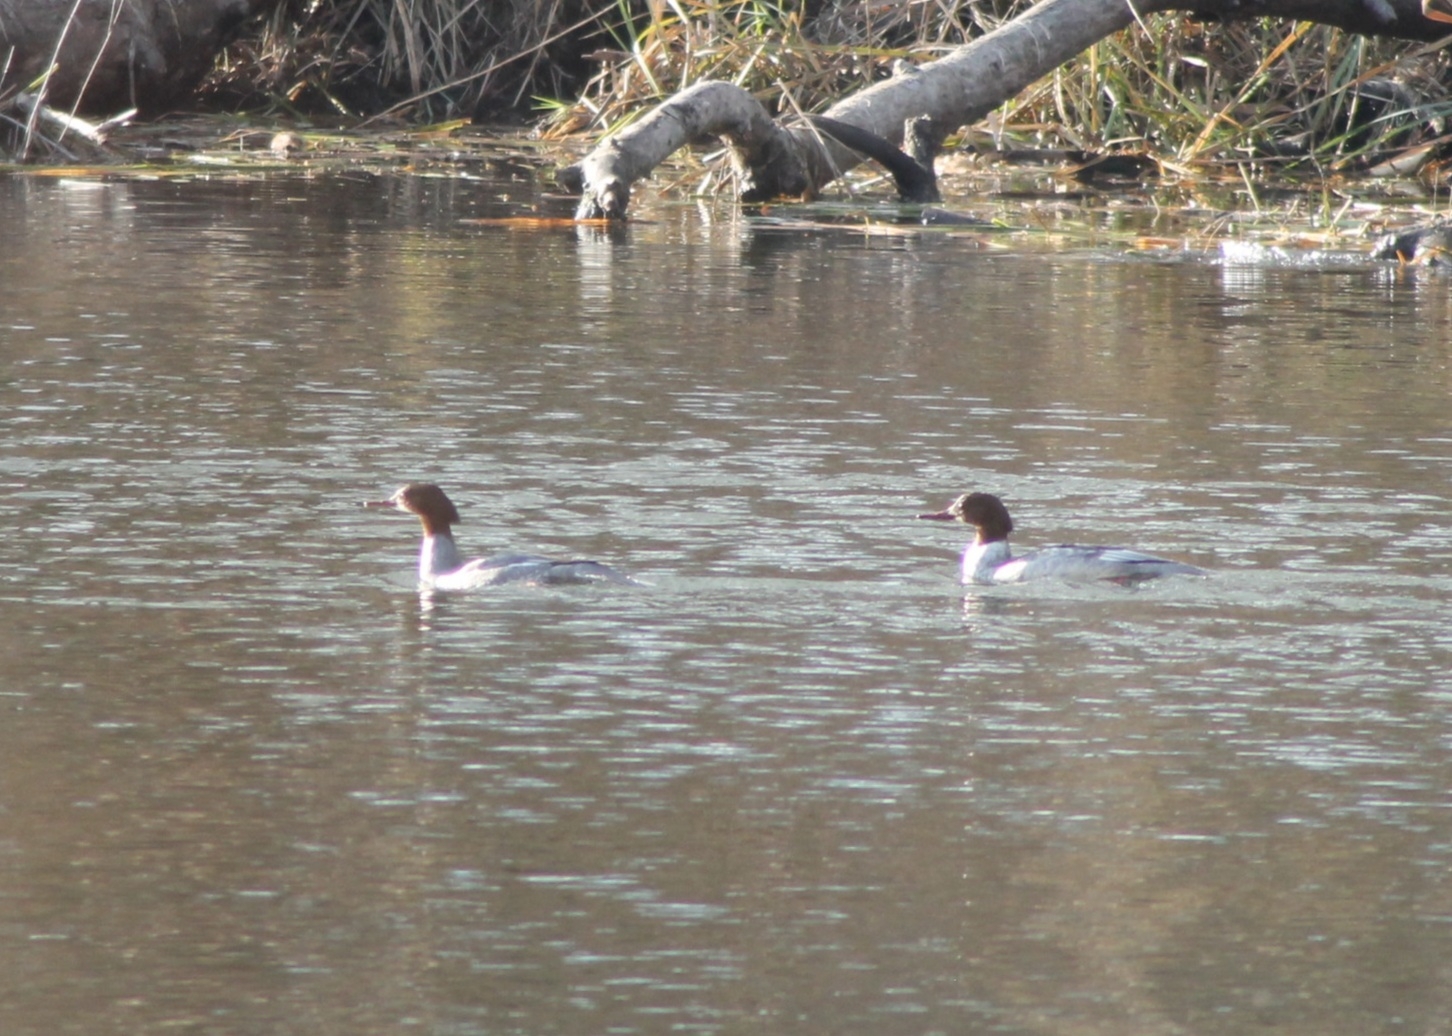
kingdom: Animalia
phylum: Chordata
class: Aves
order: Anseriformes
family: Anatidae
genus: Mergus
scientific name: Mergus merganser
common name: Common merganser
